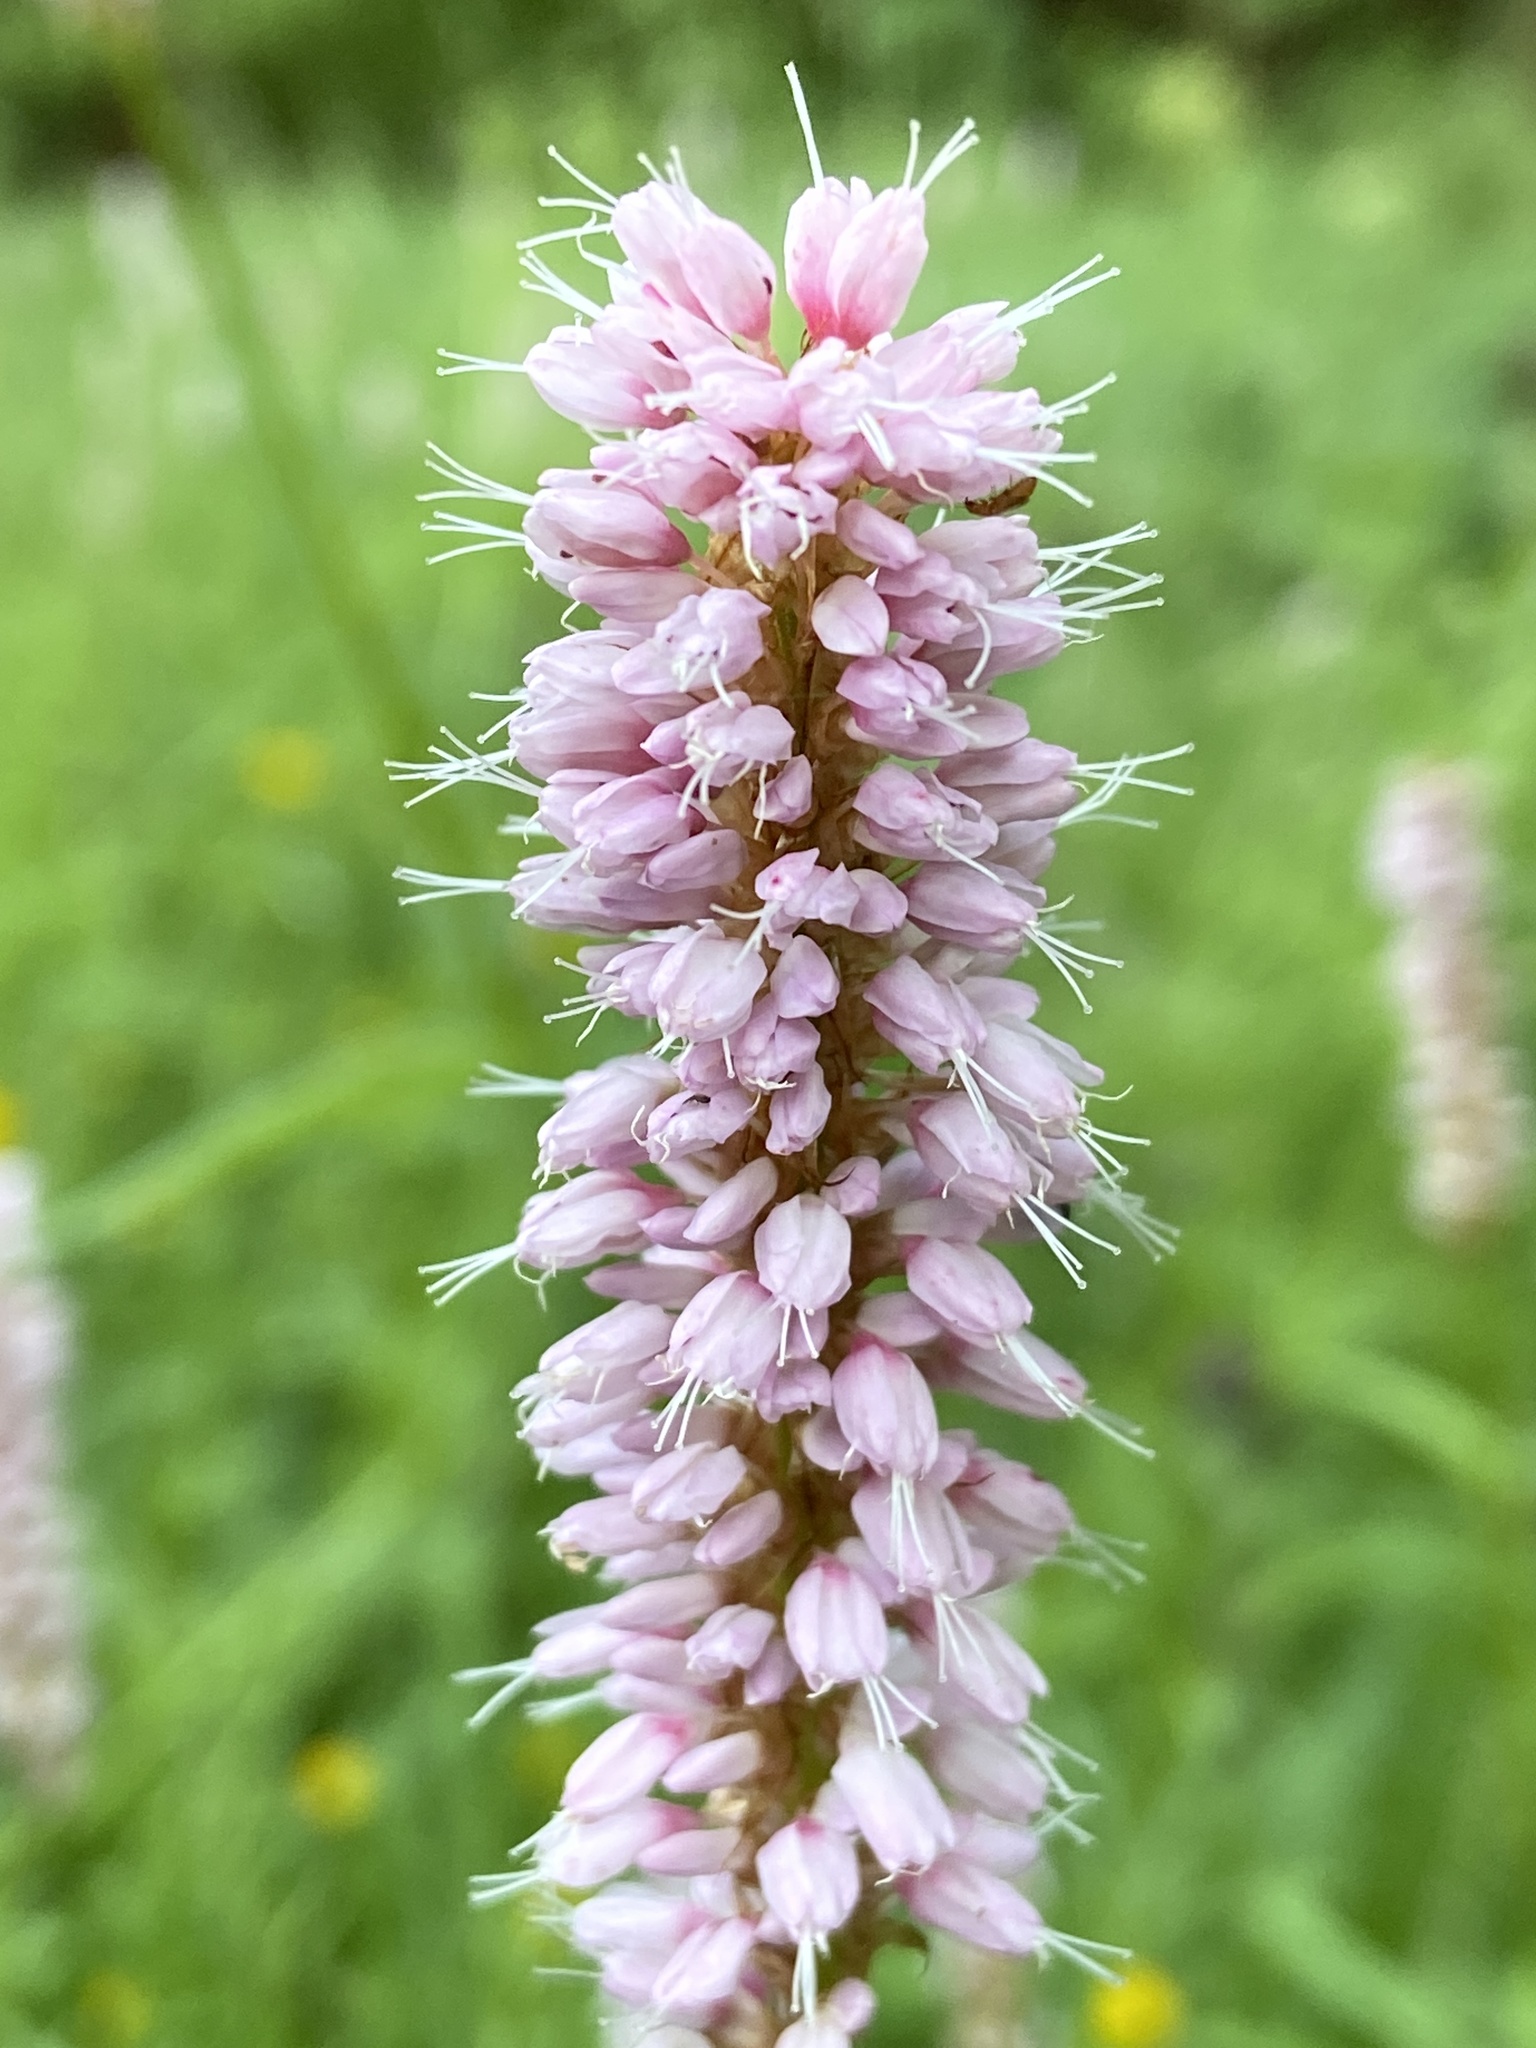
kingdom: Plantae
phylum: Tracheophyta
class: Magnoliopsida
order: Caryophyllales
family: Polygonaceae
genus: Bistorta
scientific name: Bistorta officinalis
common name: Common bistort
